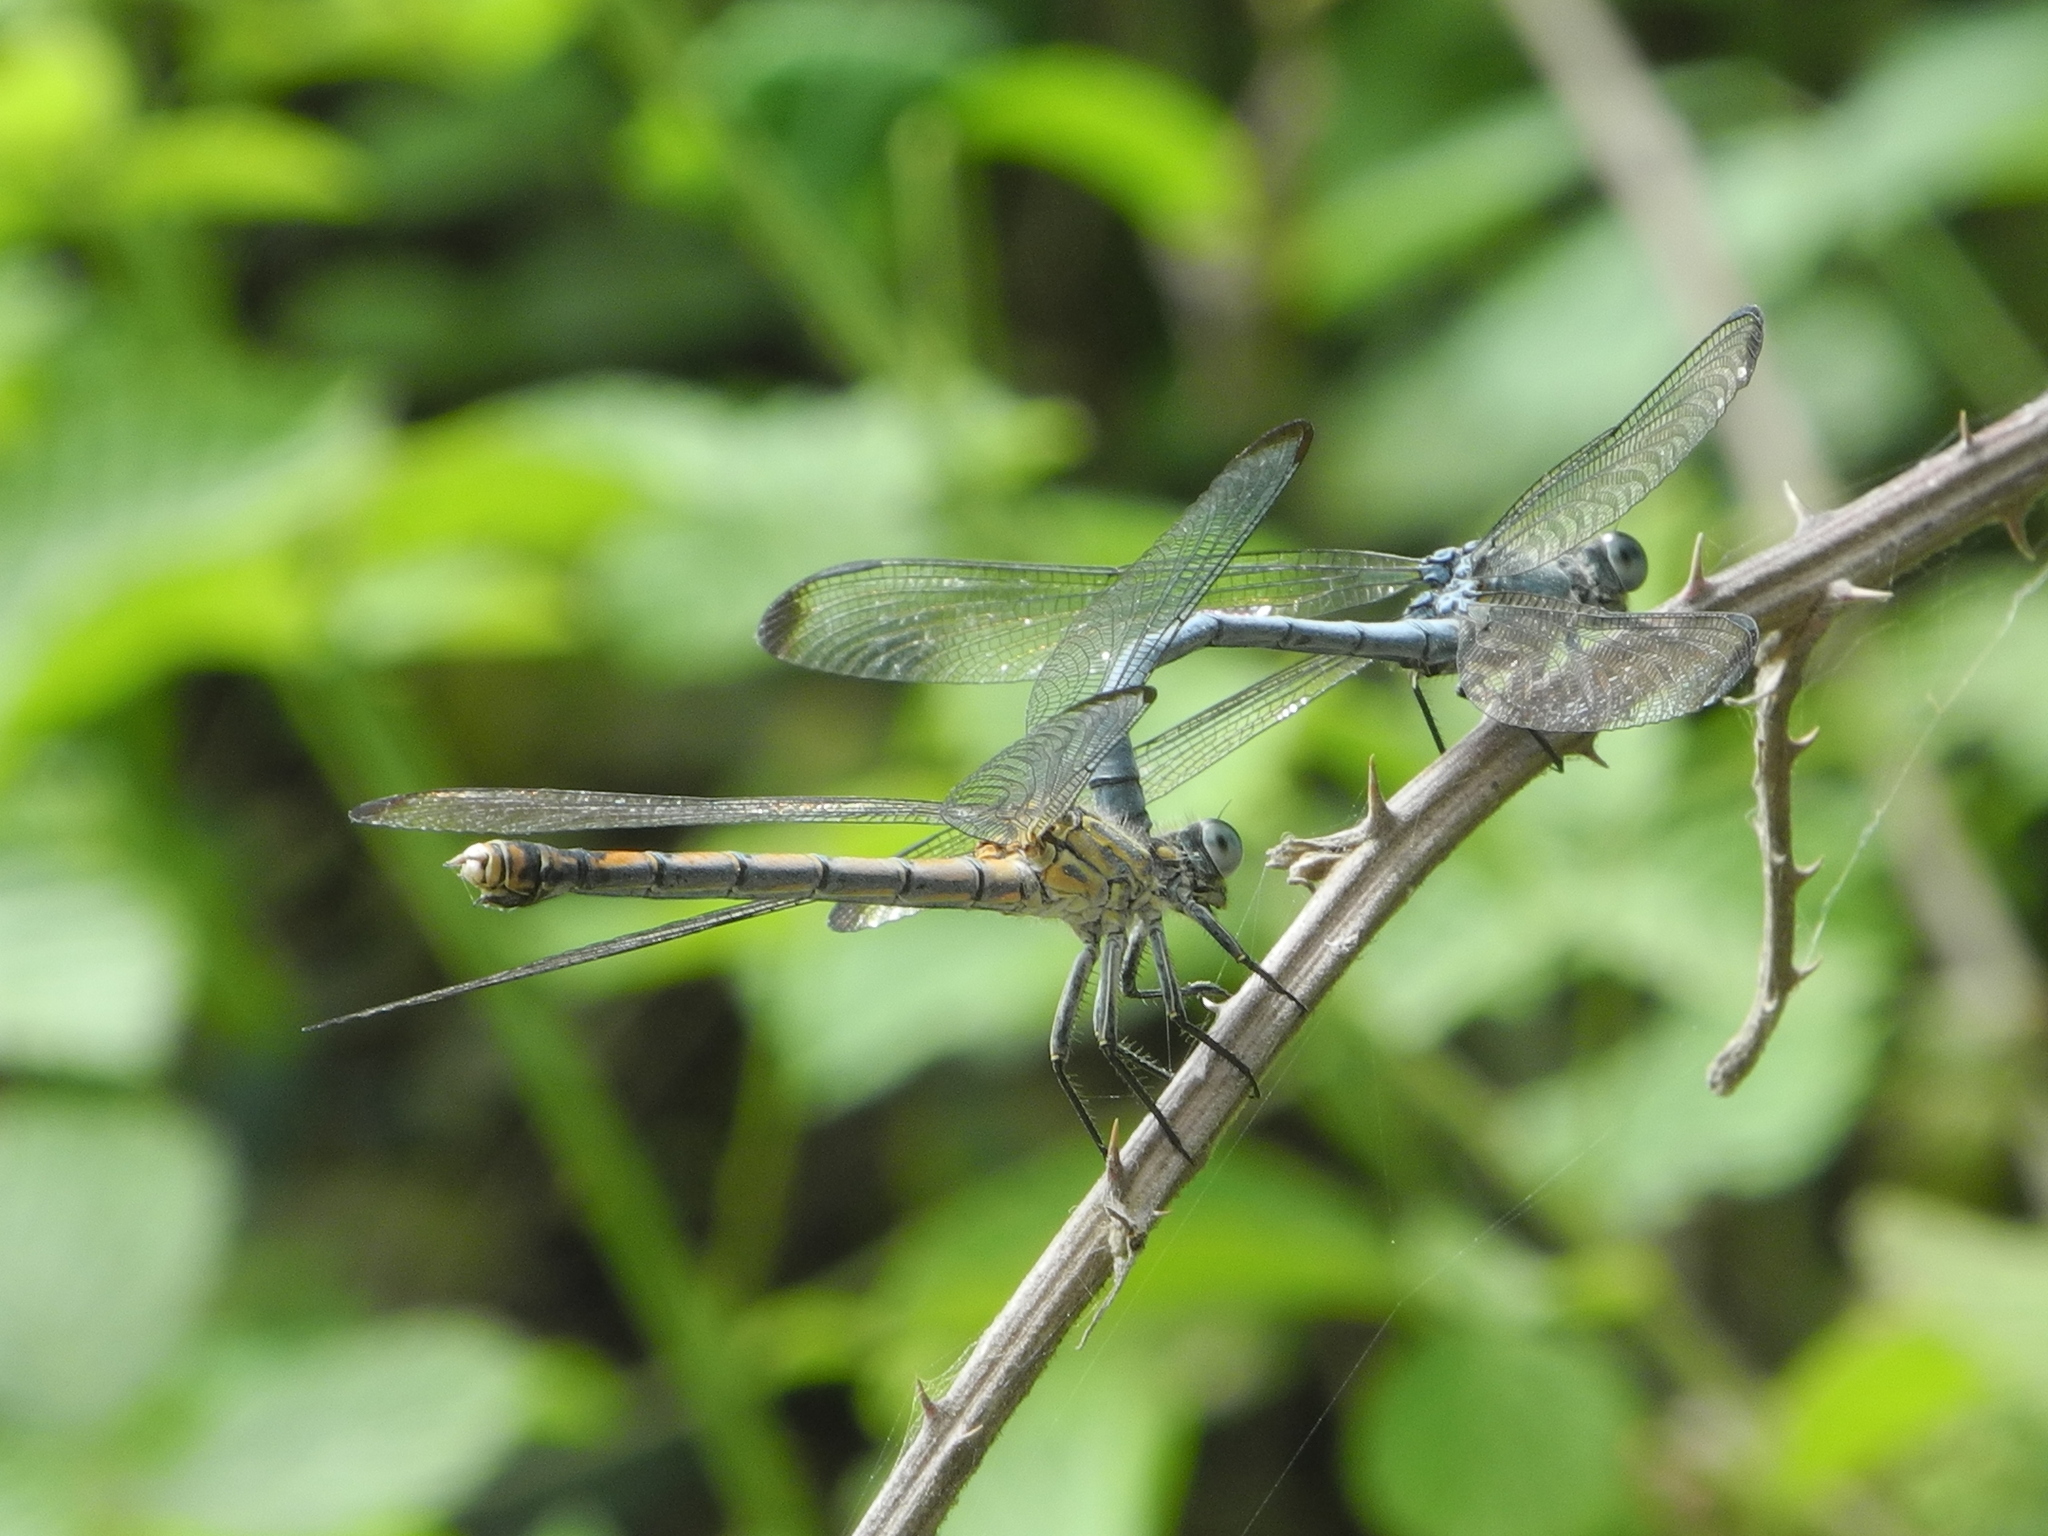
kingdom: Animalia
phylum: Arthropoda
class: Insecta
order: Odonata
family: Euphaeidae
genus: Epallage
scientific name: Epallage fatime
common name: Odalisque
